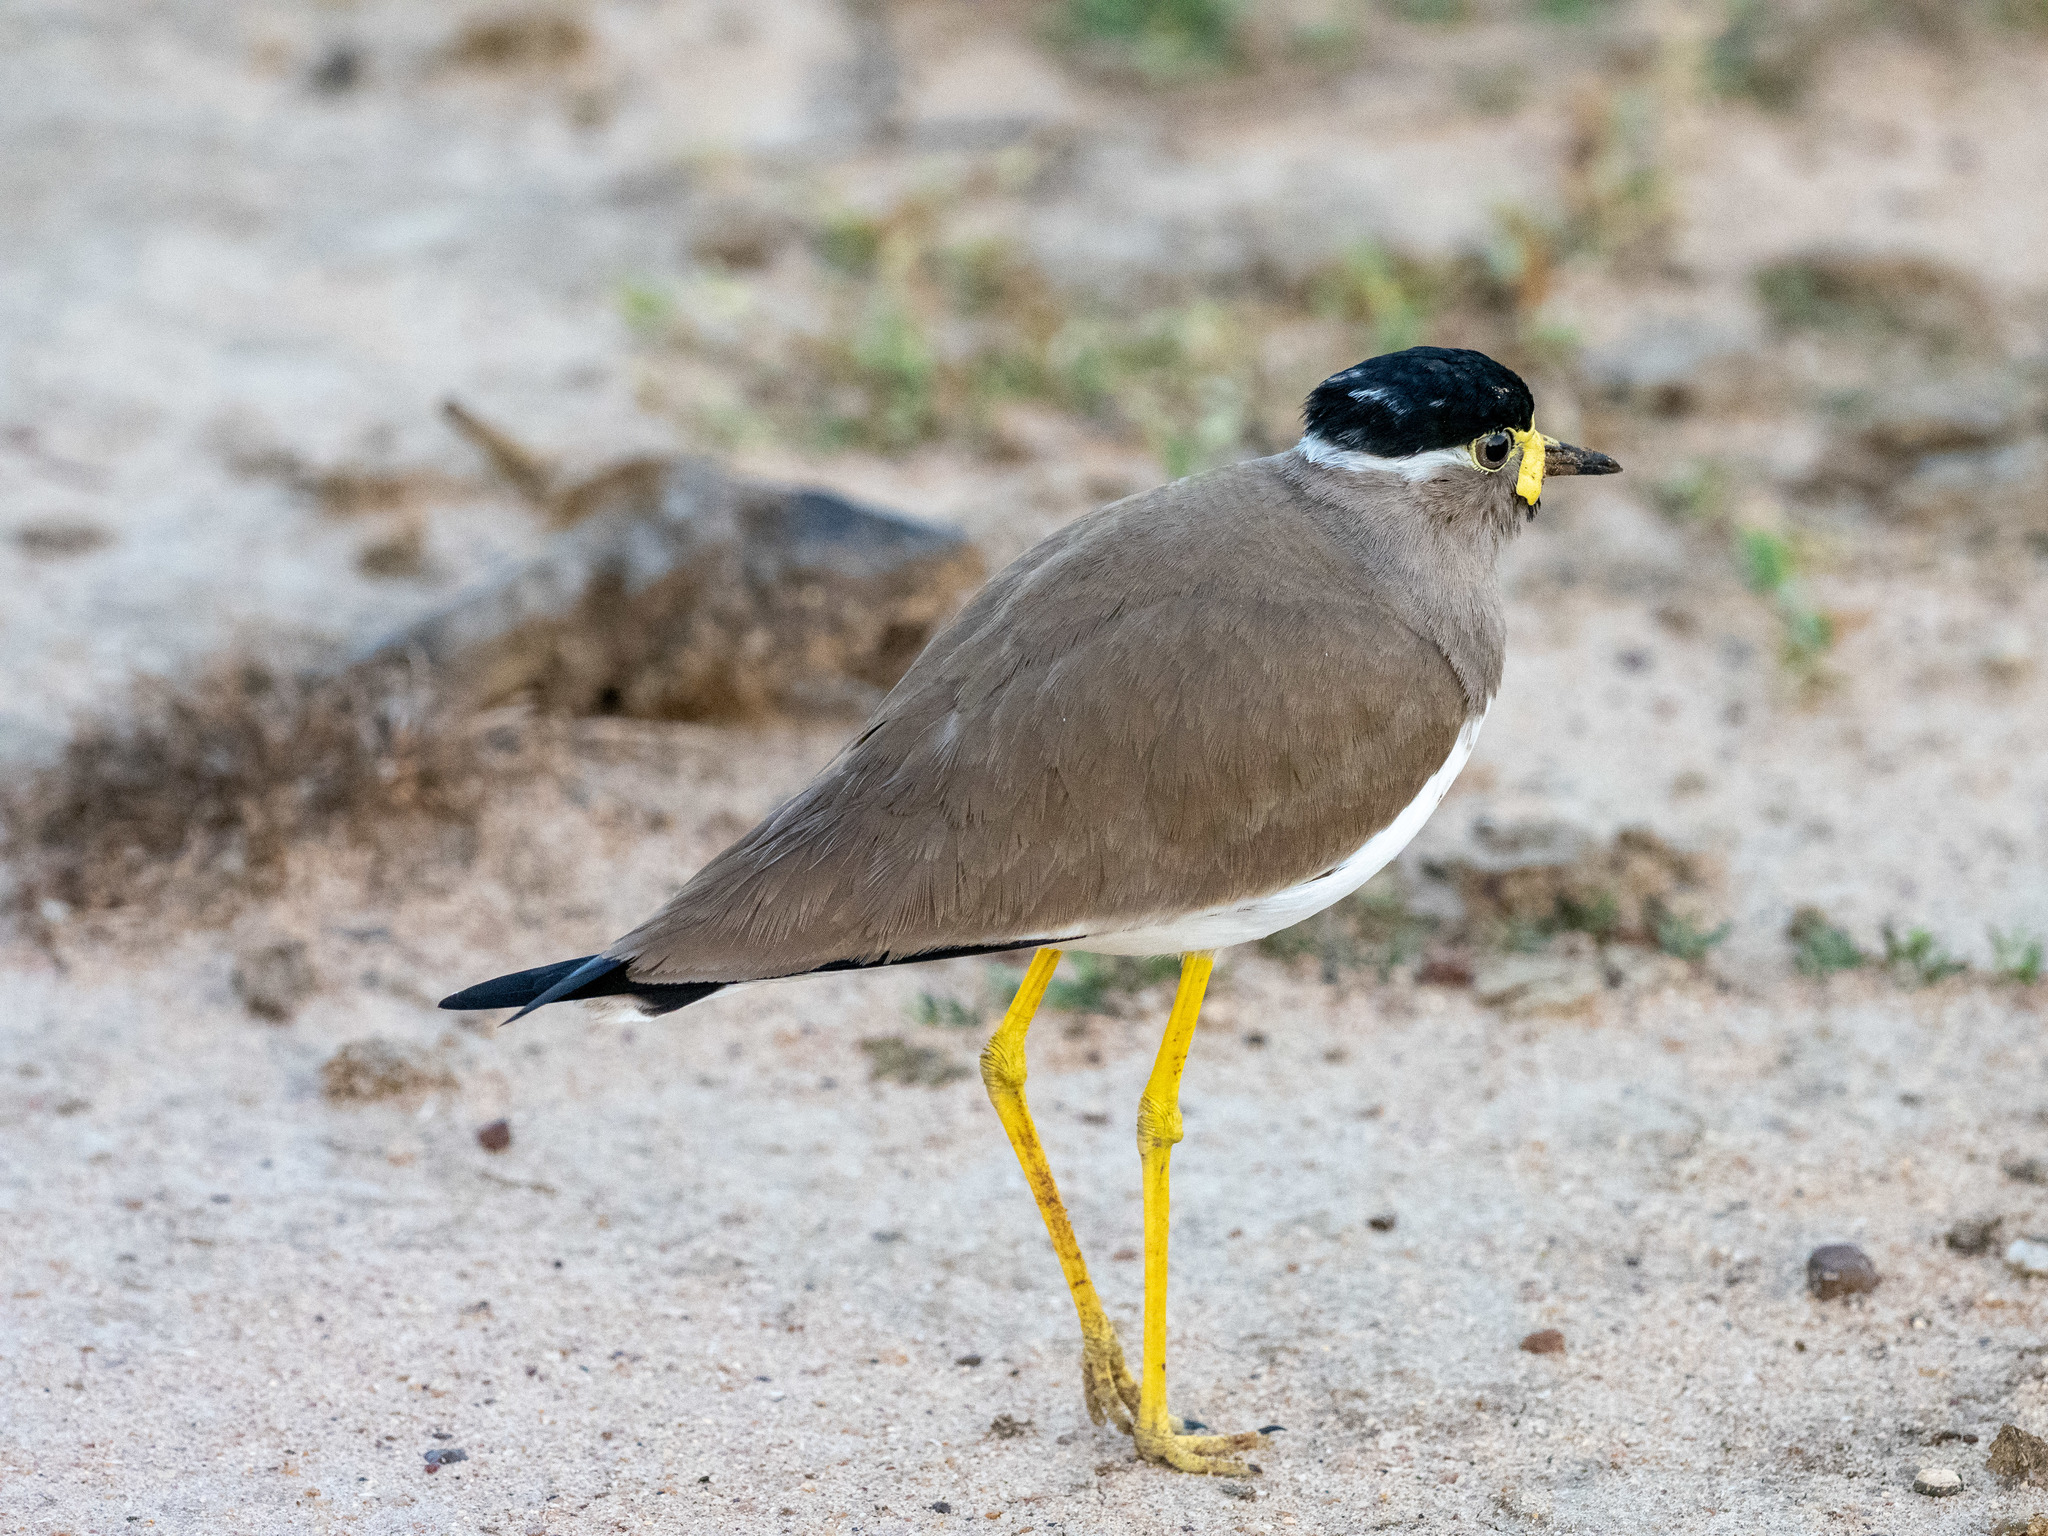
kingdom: Animalia
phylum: Chordata
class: Aves
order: Charadriiformes
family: Charadriidae
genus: Vanellus
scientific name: Vanellus malabaricus
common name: Yellow-wattled lapwing
